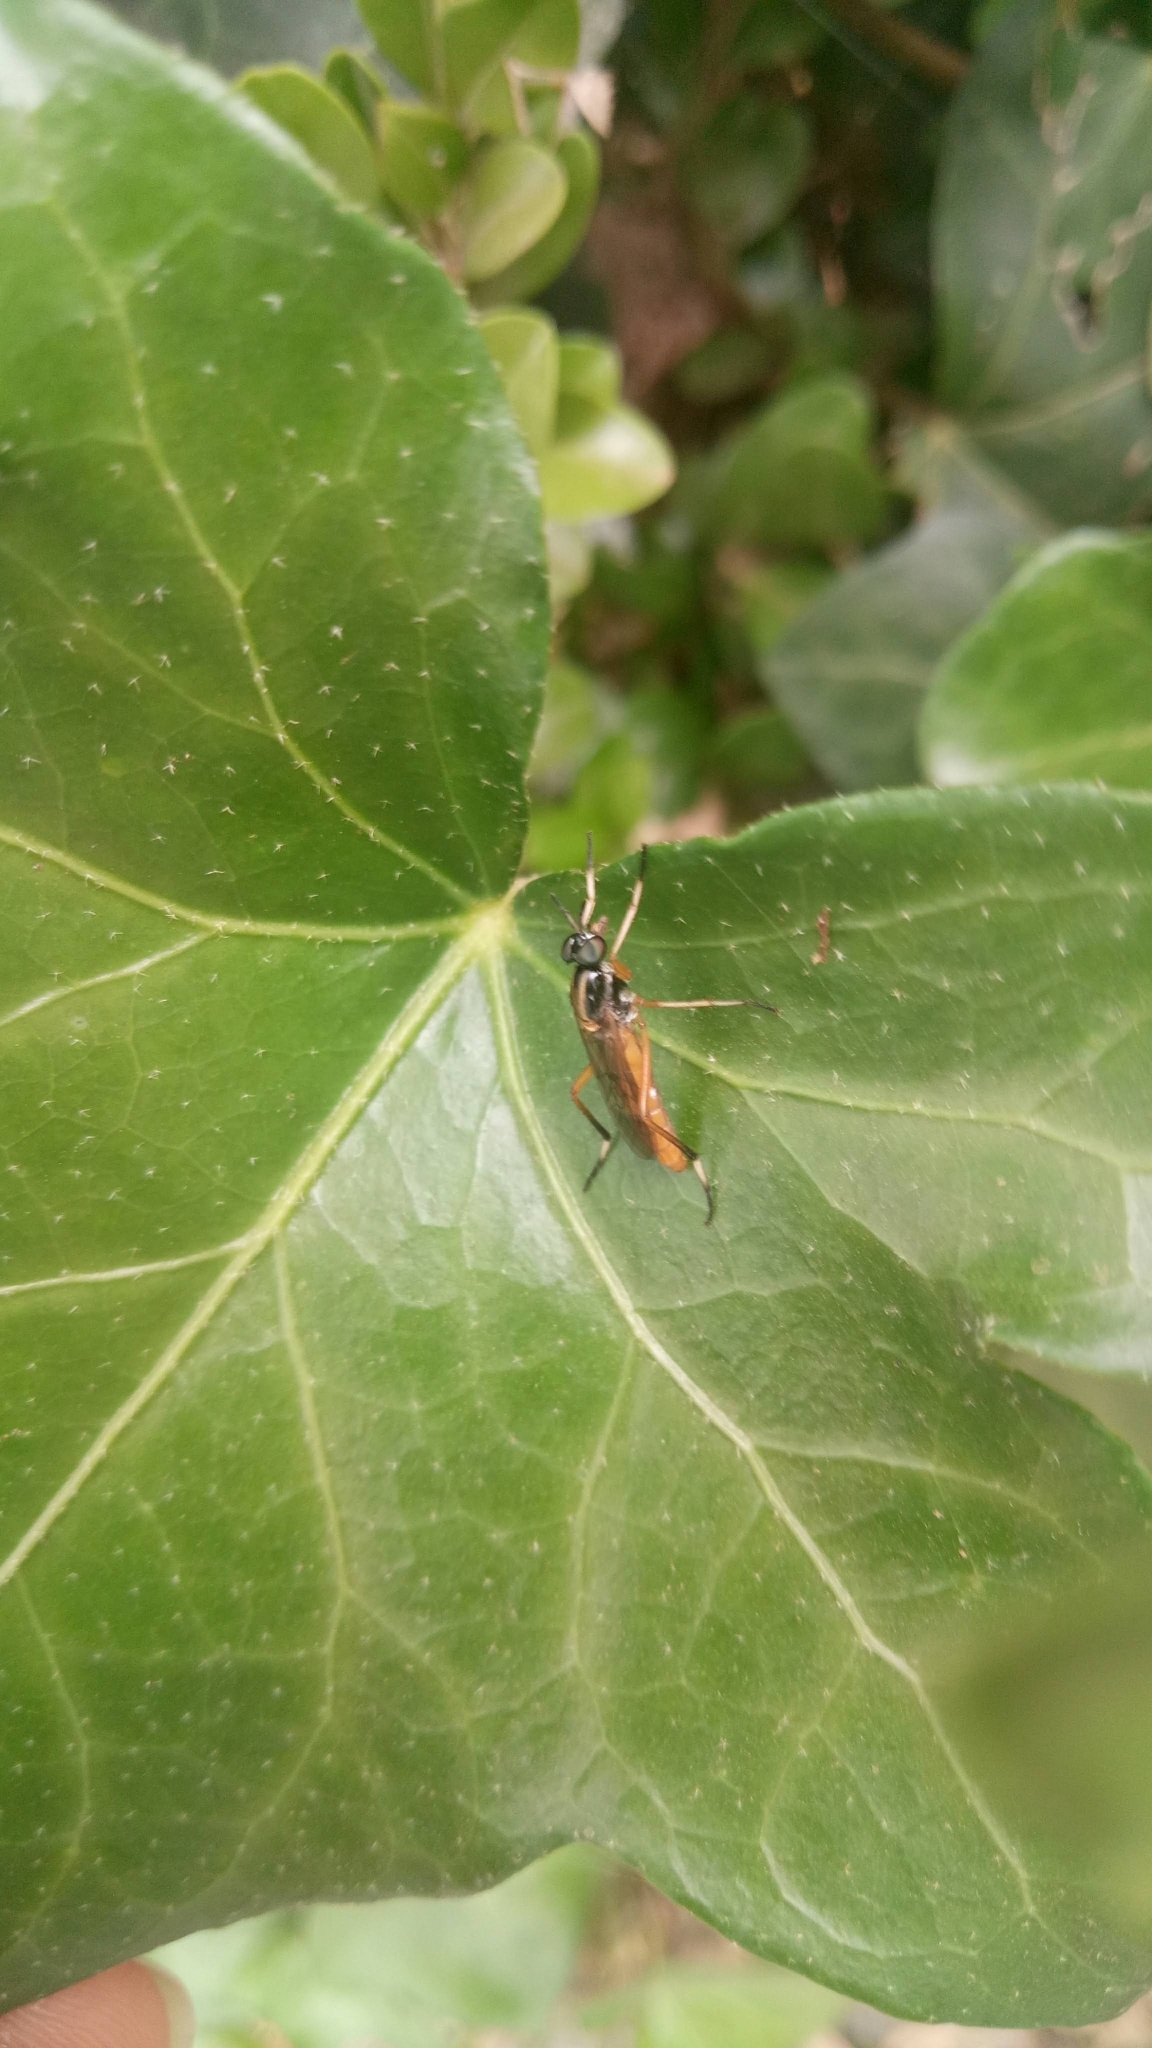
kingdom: Animalia
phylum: Arthropoda
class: Insecta
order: Diptera
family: Therevidae
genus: Evansomyia
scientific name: Evansomyia
